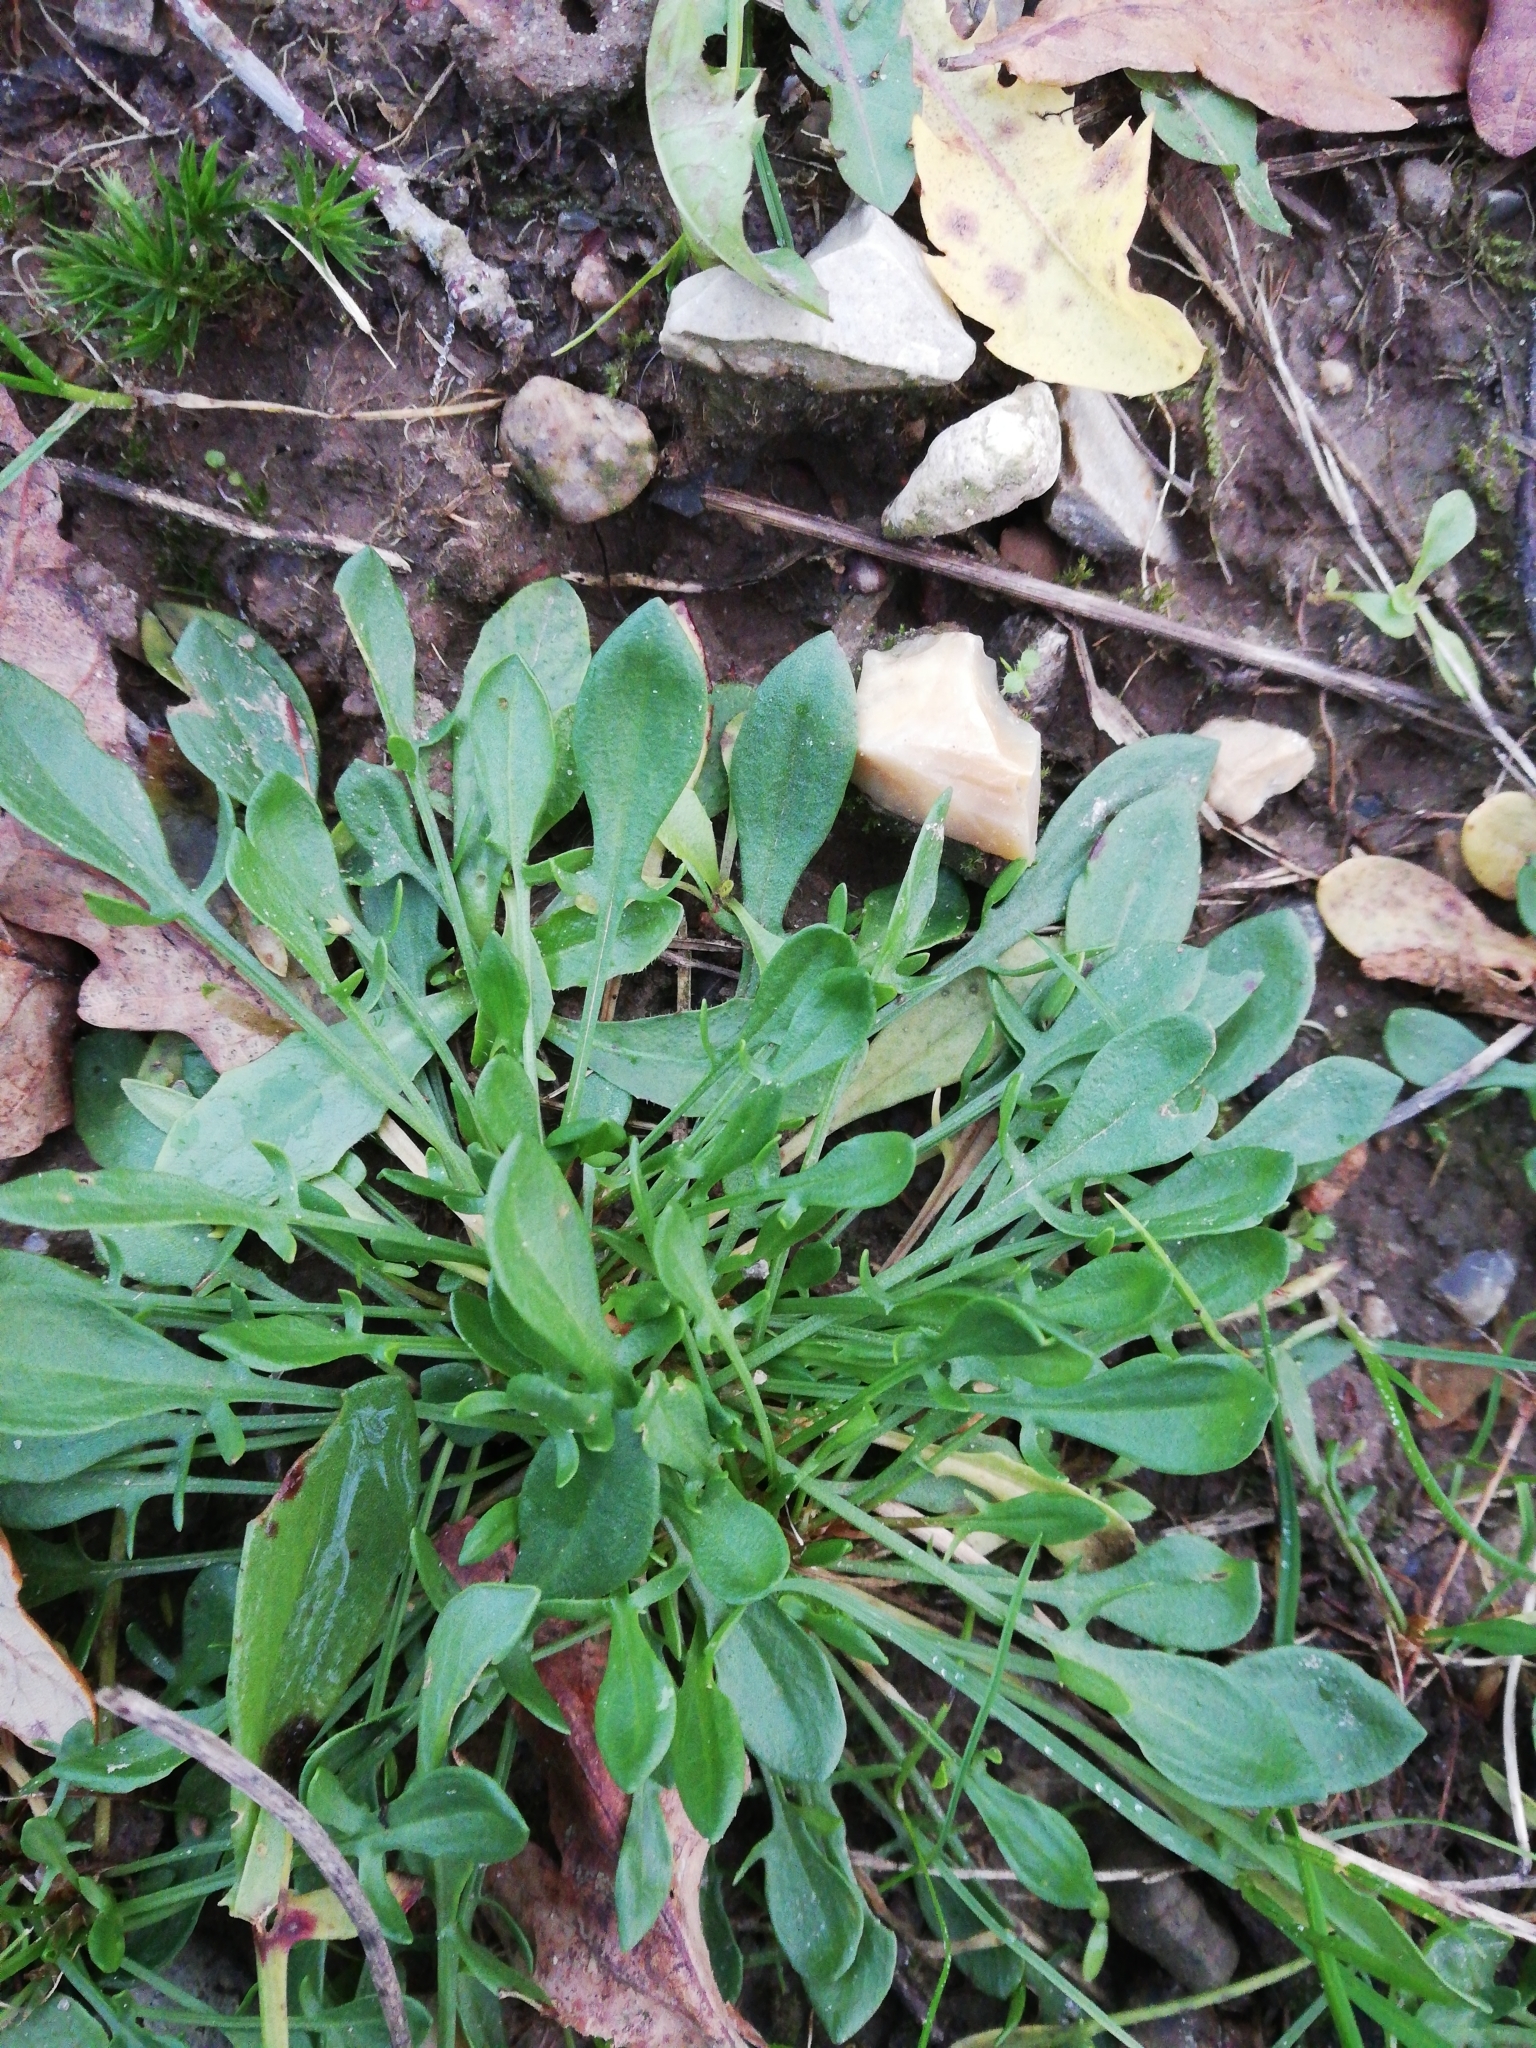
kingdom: Plantae
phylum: Tracheophyta
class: Magnoliopsida
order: Caryophyllales
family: Polygonaceae
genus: Rumex
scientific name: Rumex acetosella
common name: Common sheep sorrel
